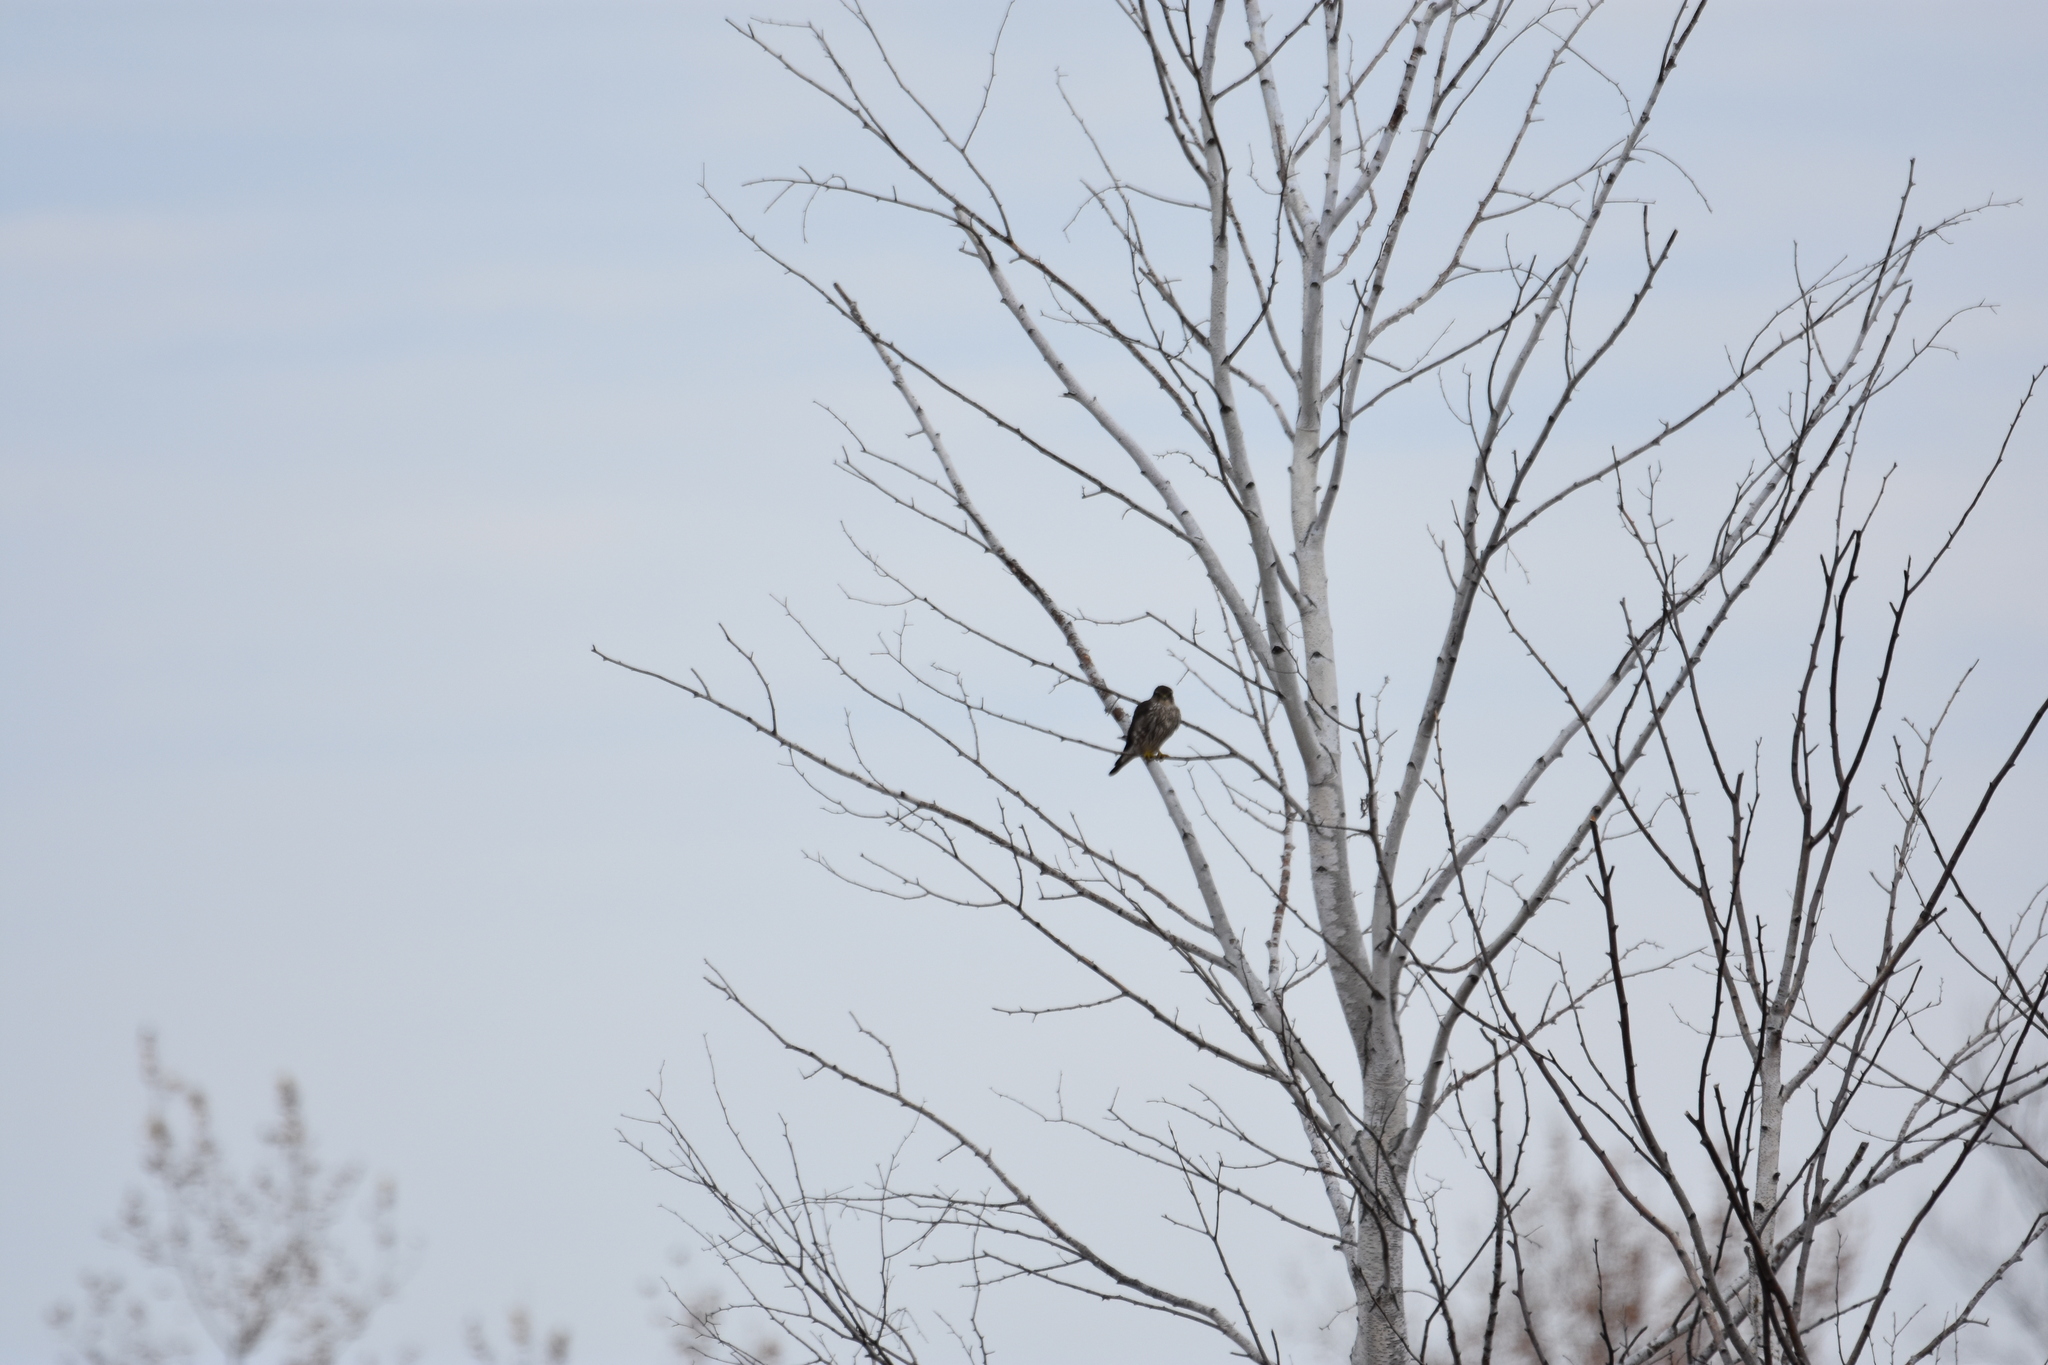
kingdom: Animalia
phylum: Chordata
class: Aves
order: Falconiformes
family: Falconidae
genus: Falco
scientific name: Falco columbarius
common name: Merlin
